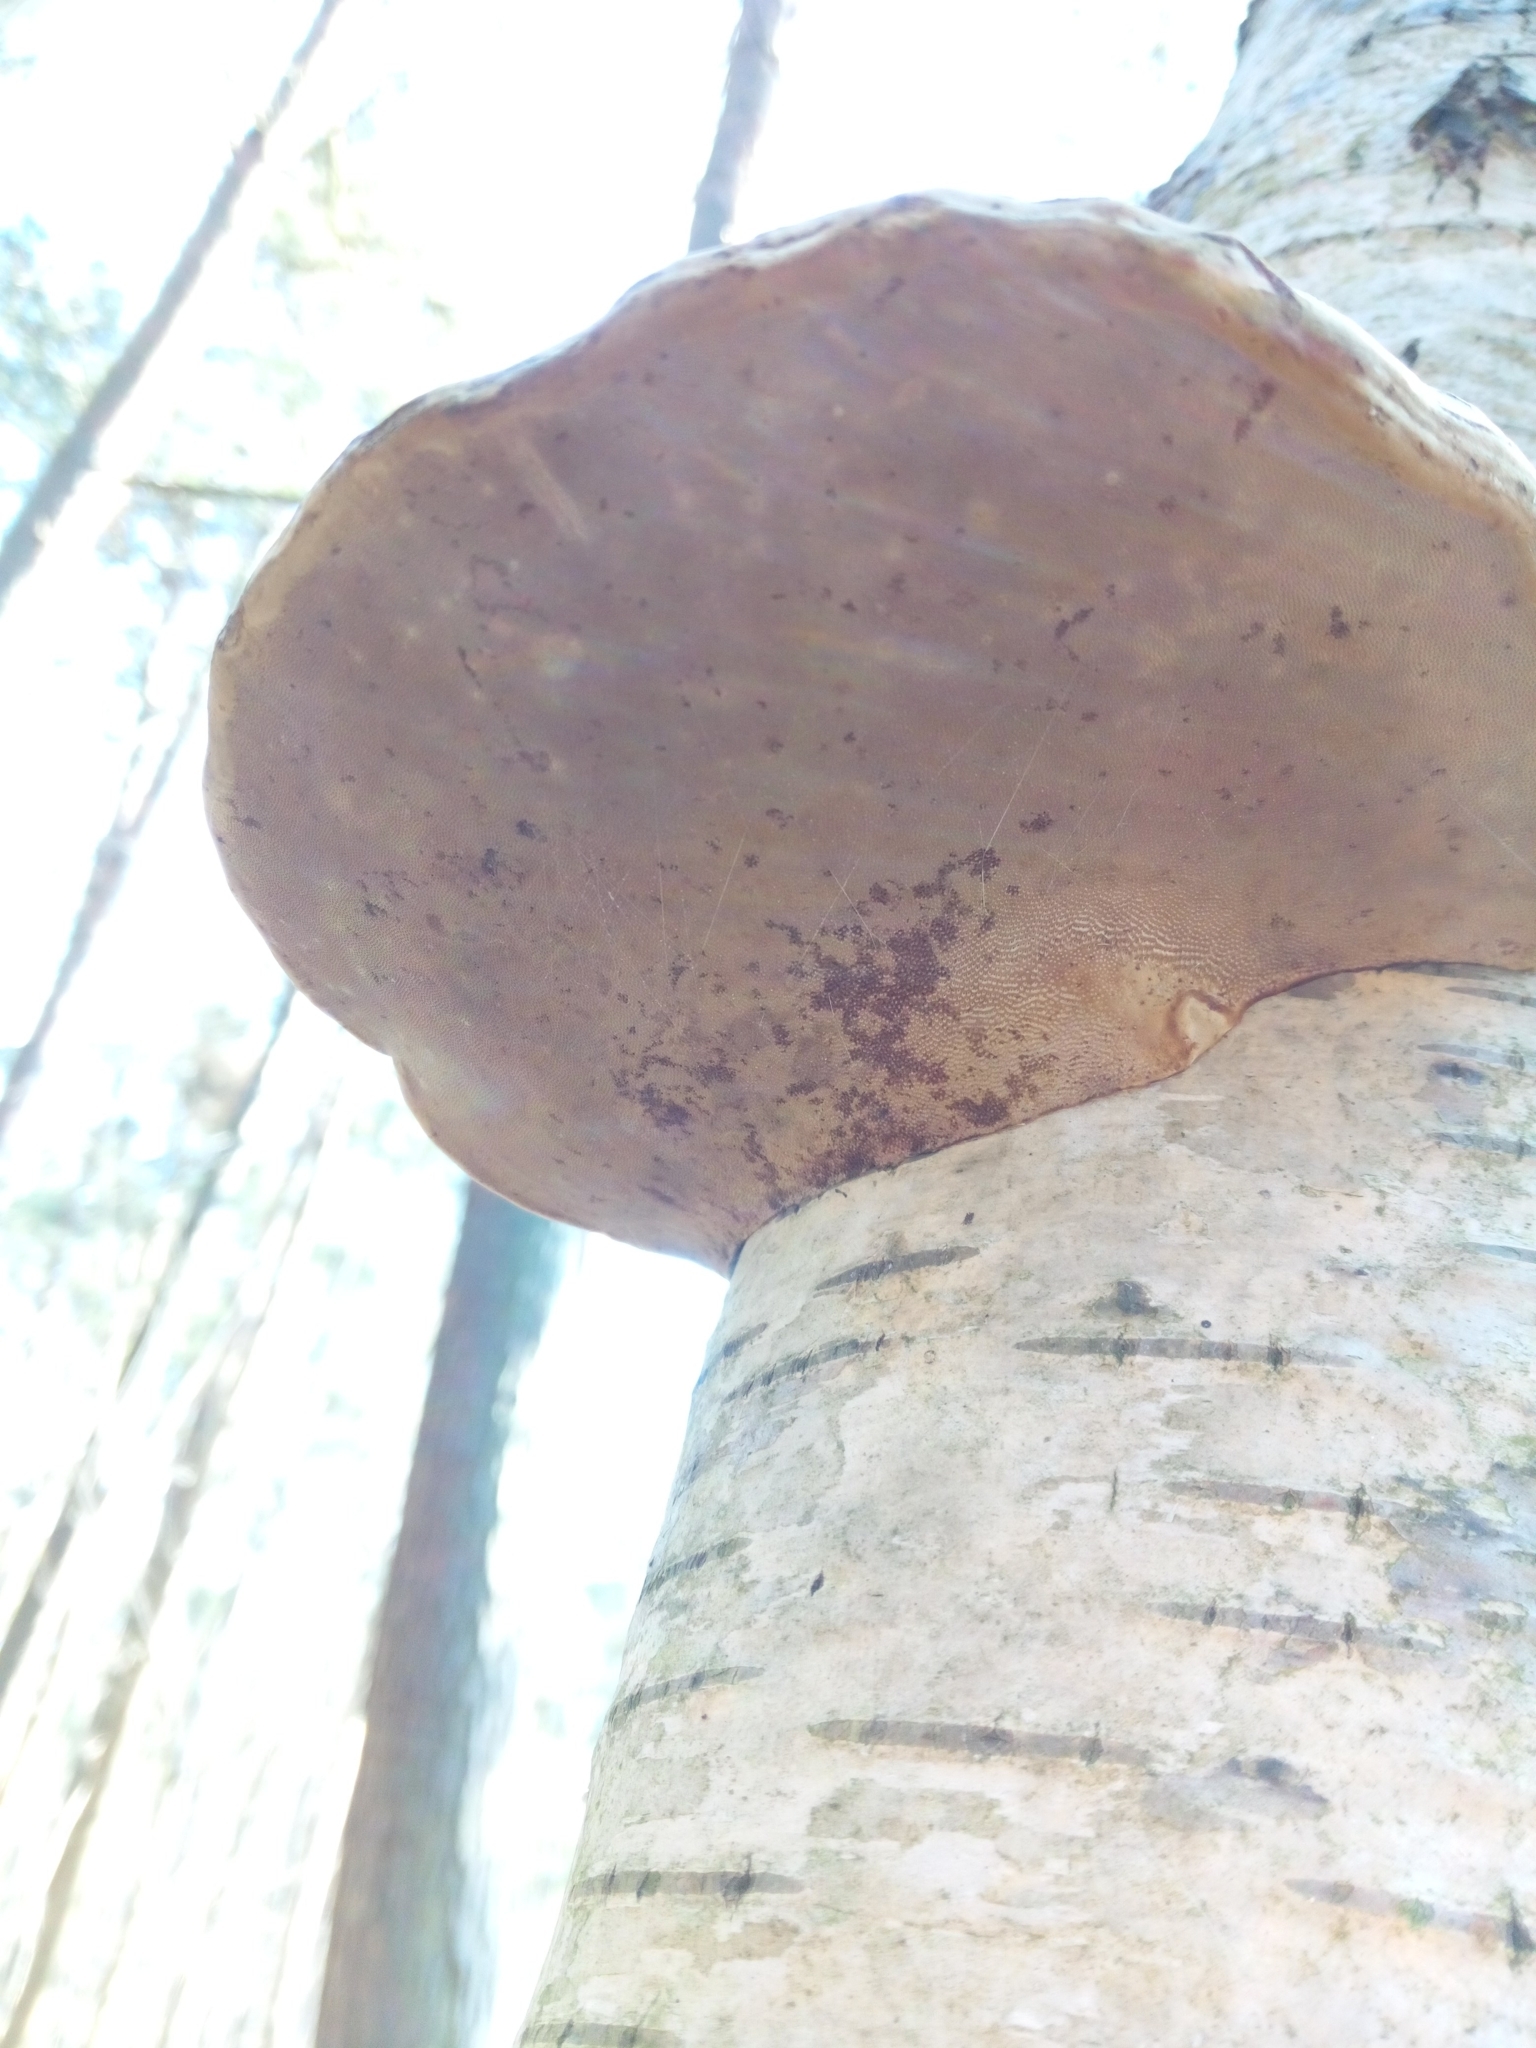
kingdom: Fungi
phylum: Basidiomycota
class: Agaricomycetes
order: Polyporales
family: Polyporaceae
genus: Fomes
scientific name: Fomes fomentarius
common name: Hoof fungus
